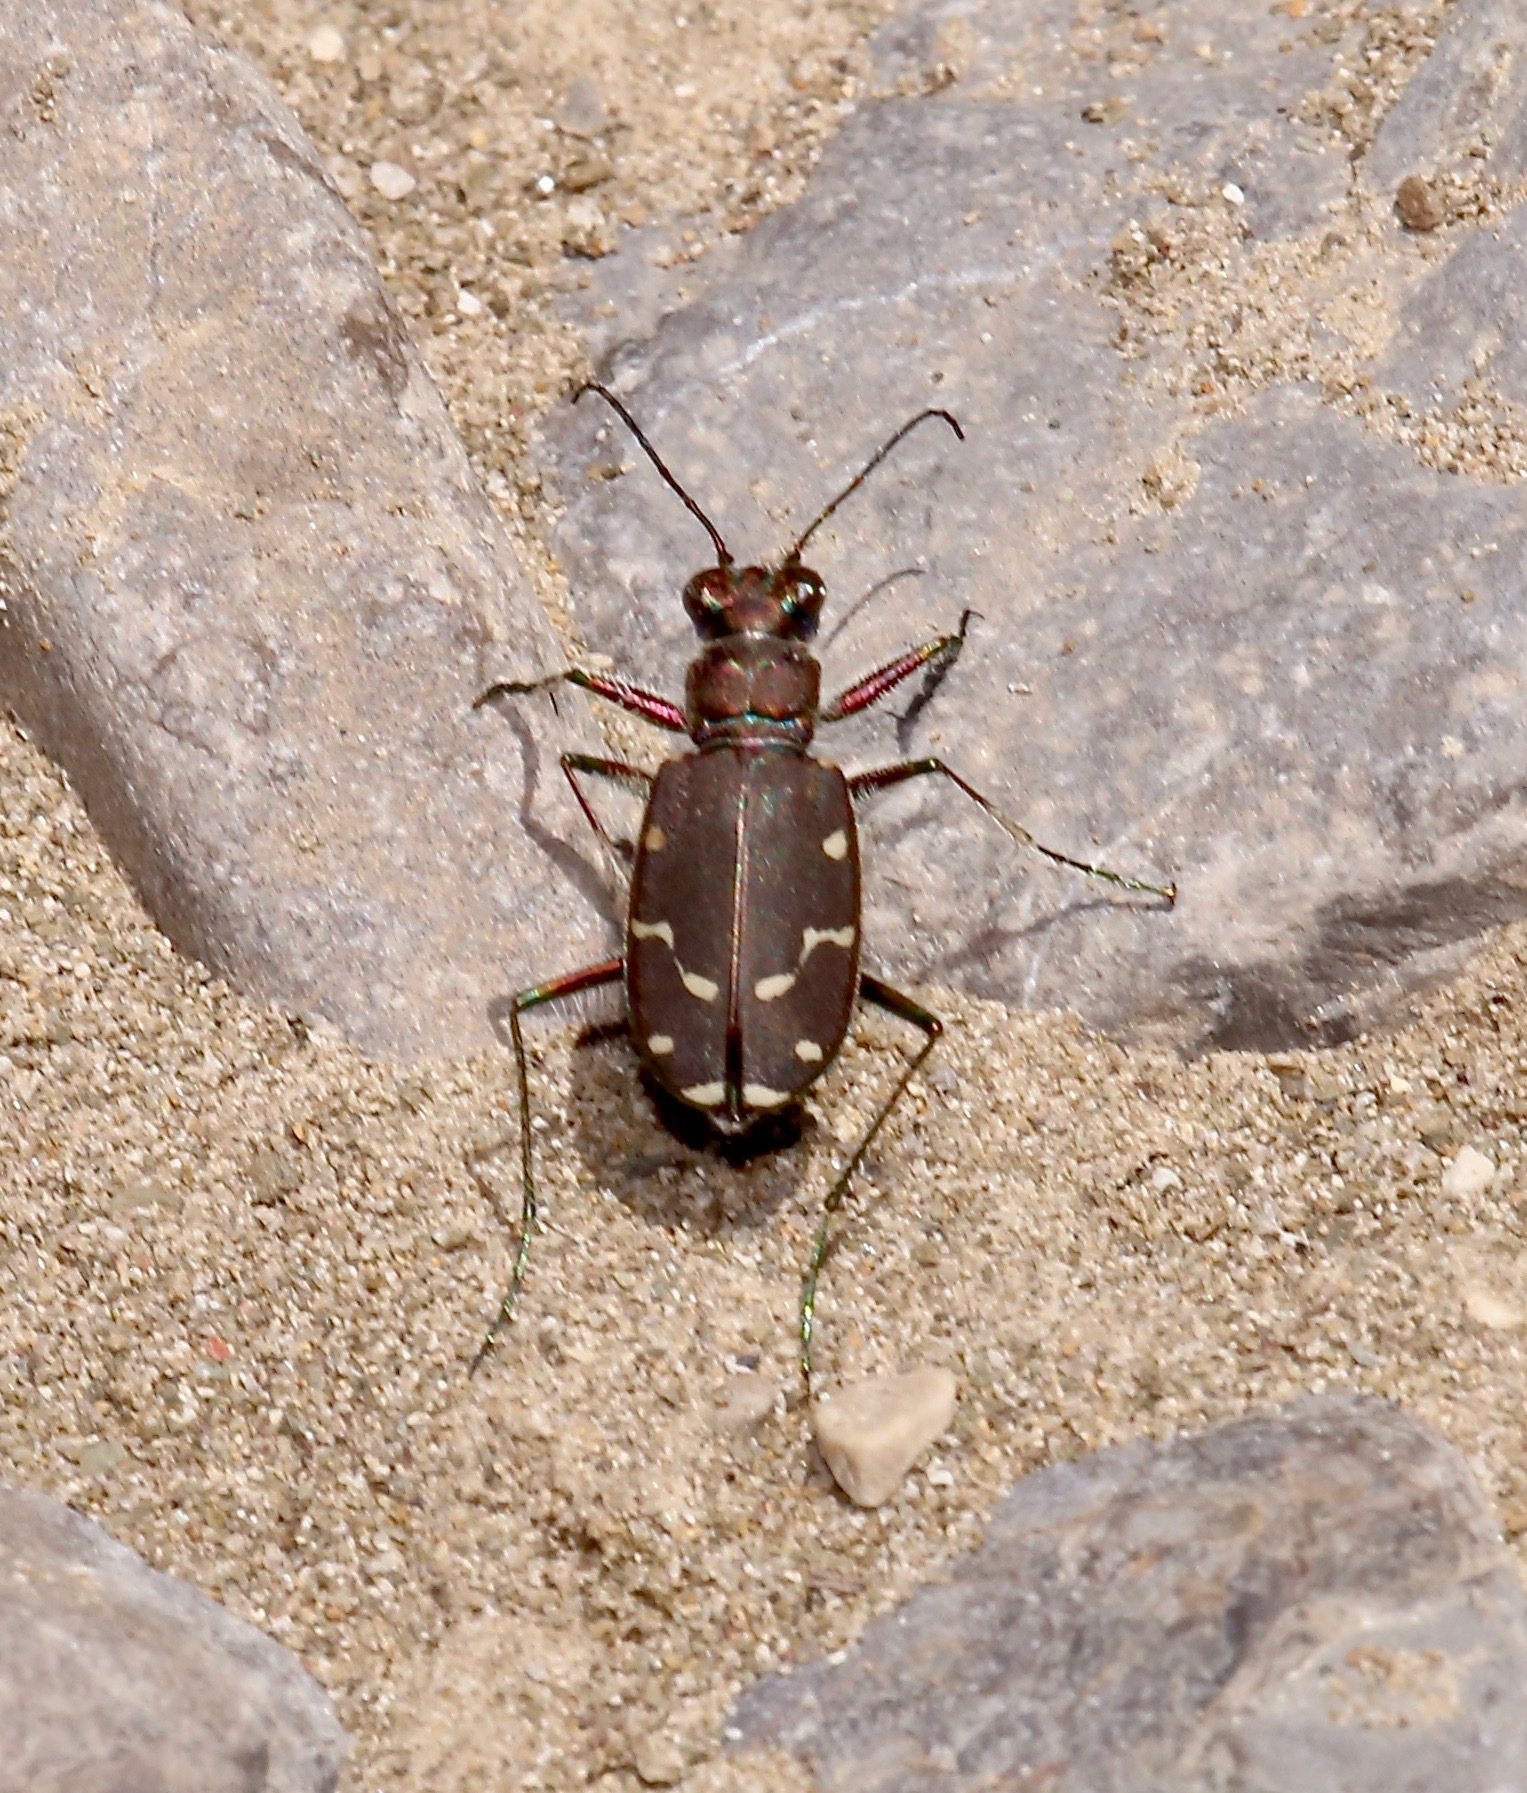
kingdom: Animalia
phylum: Arthropoda
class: Insecta
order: Coleoptera
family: Carabidae
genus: Cicindela
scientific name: Cicindela oregona
